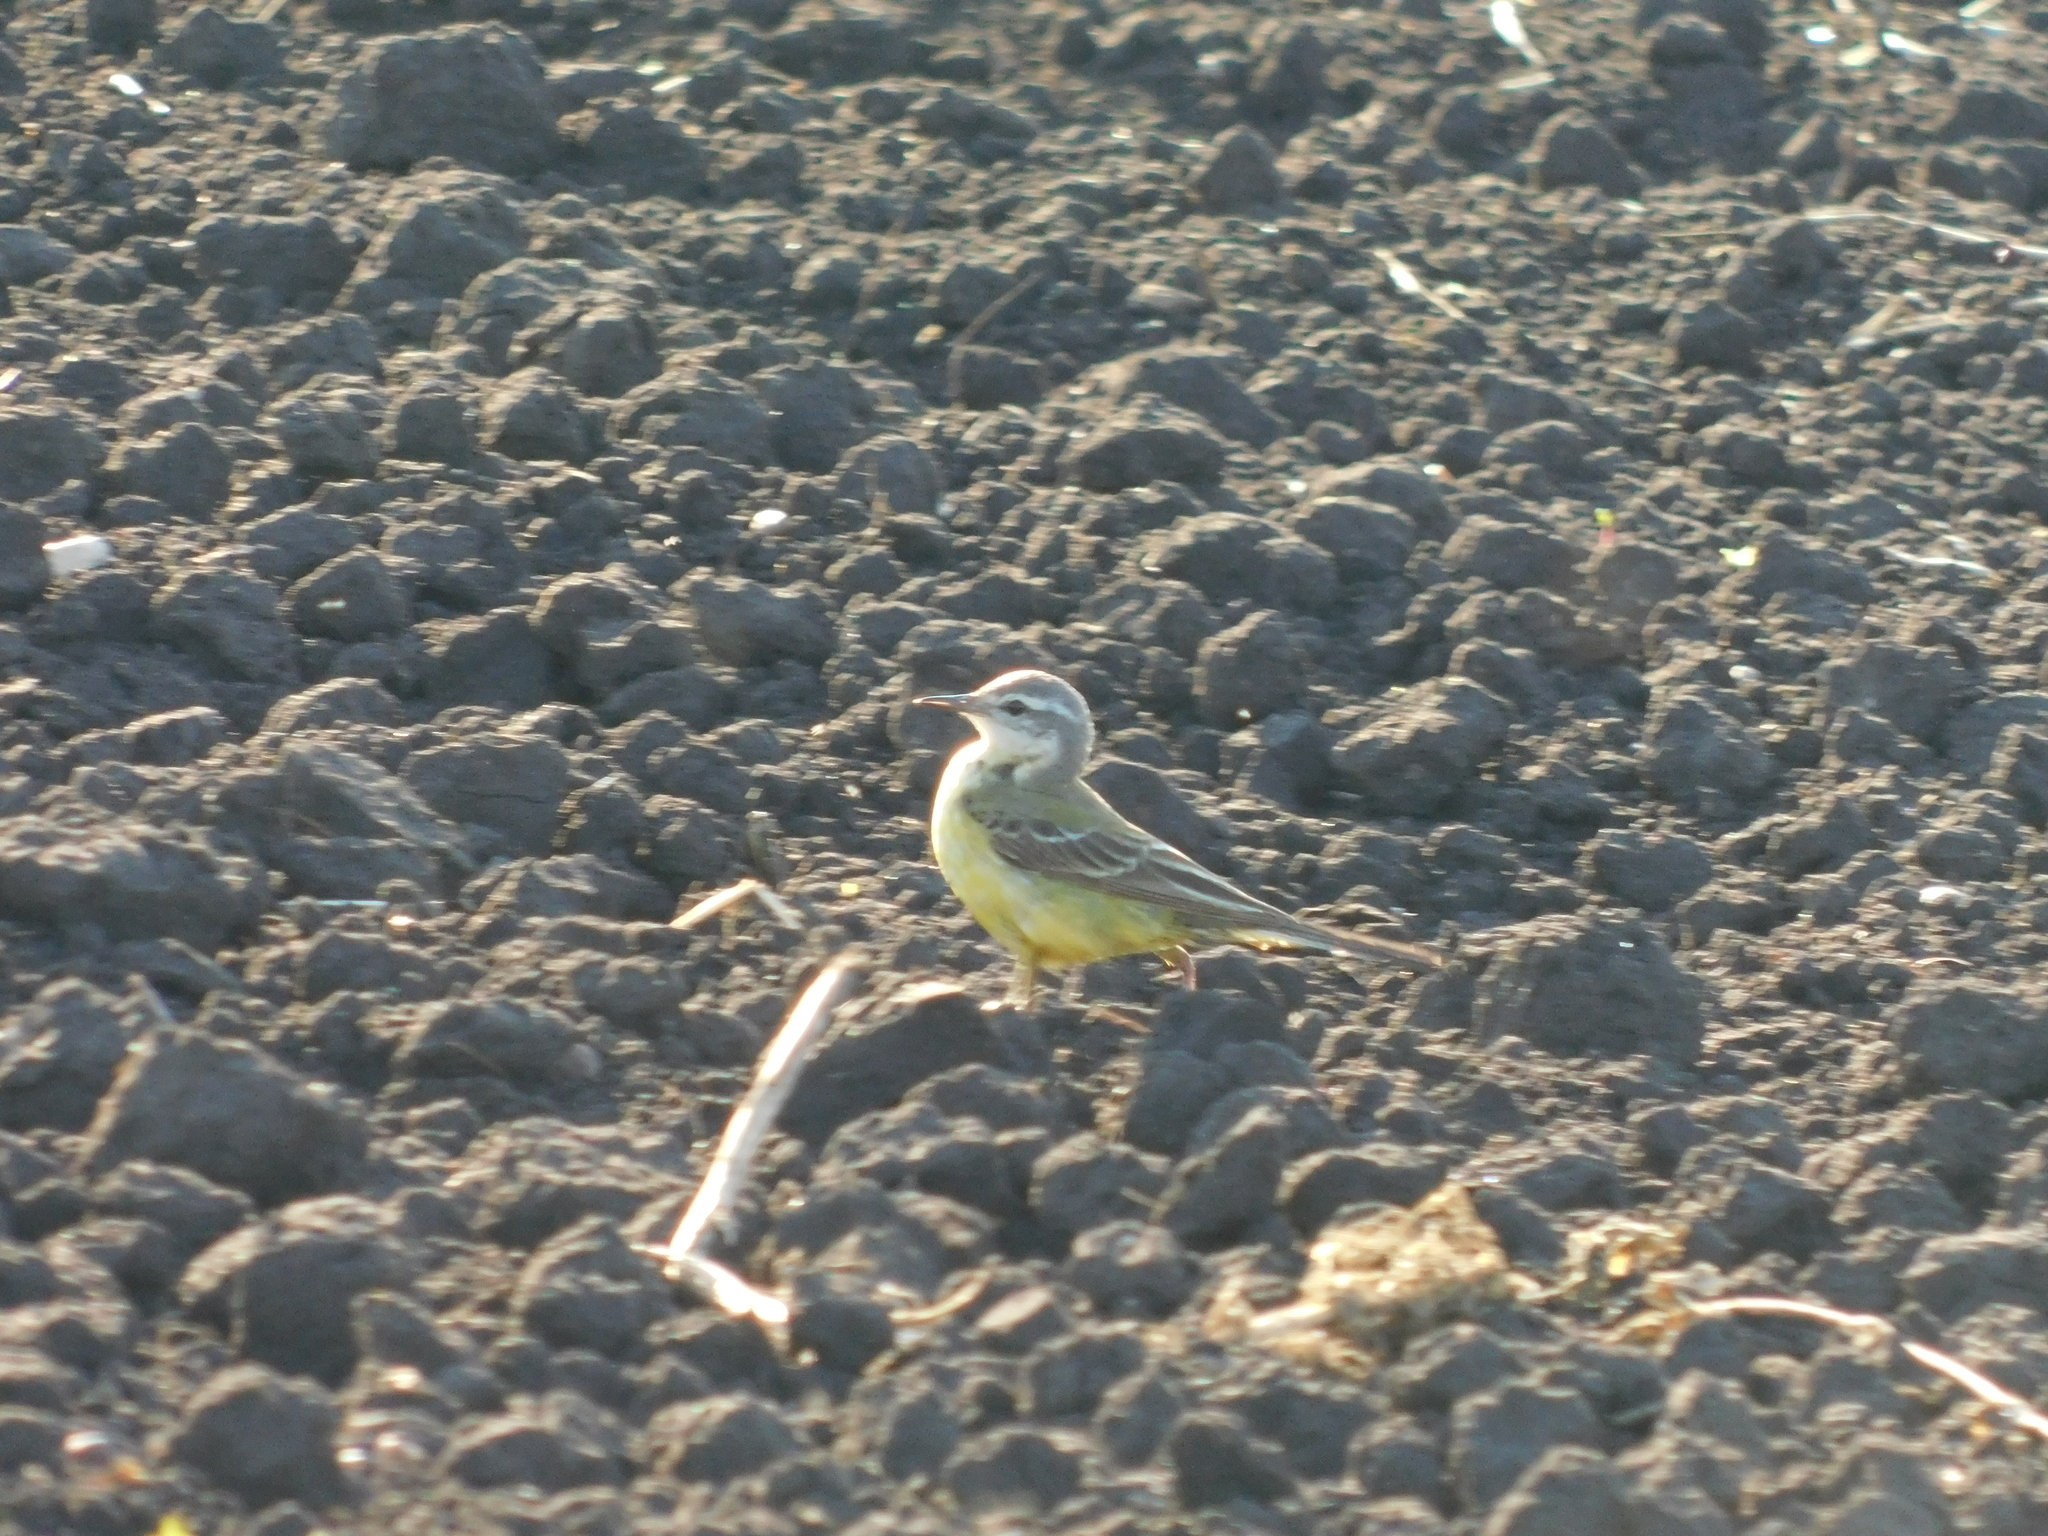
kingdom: Animalia
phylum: Chordata
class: Aves
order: Passeriformes
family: Motacillidae
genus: Motacilla
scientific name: Motacilla flava
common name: Western yellow wagtail
